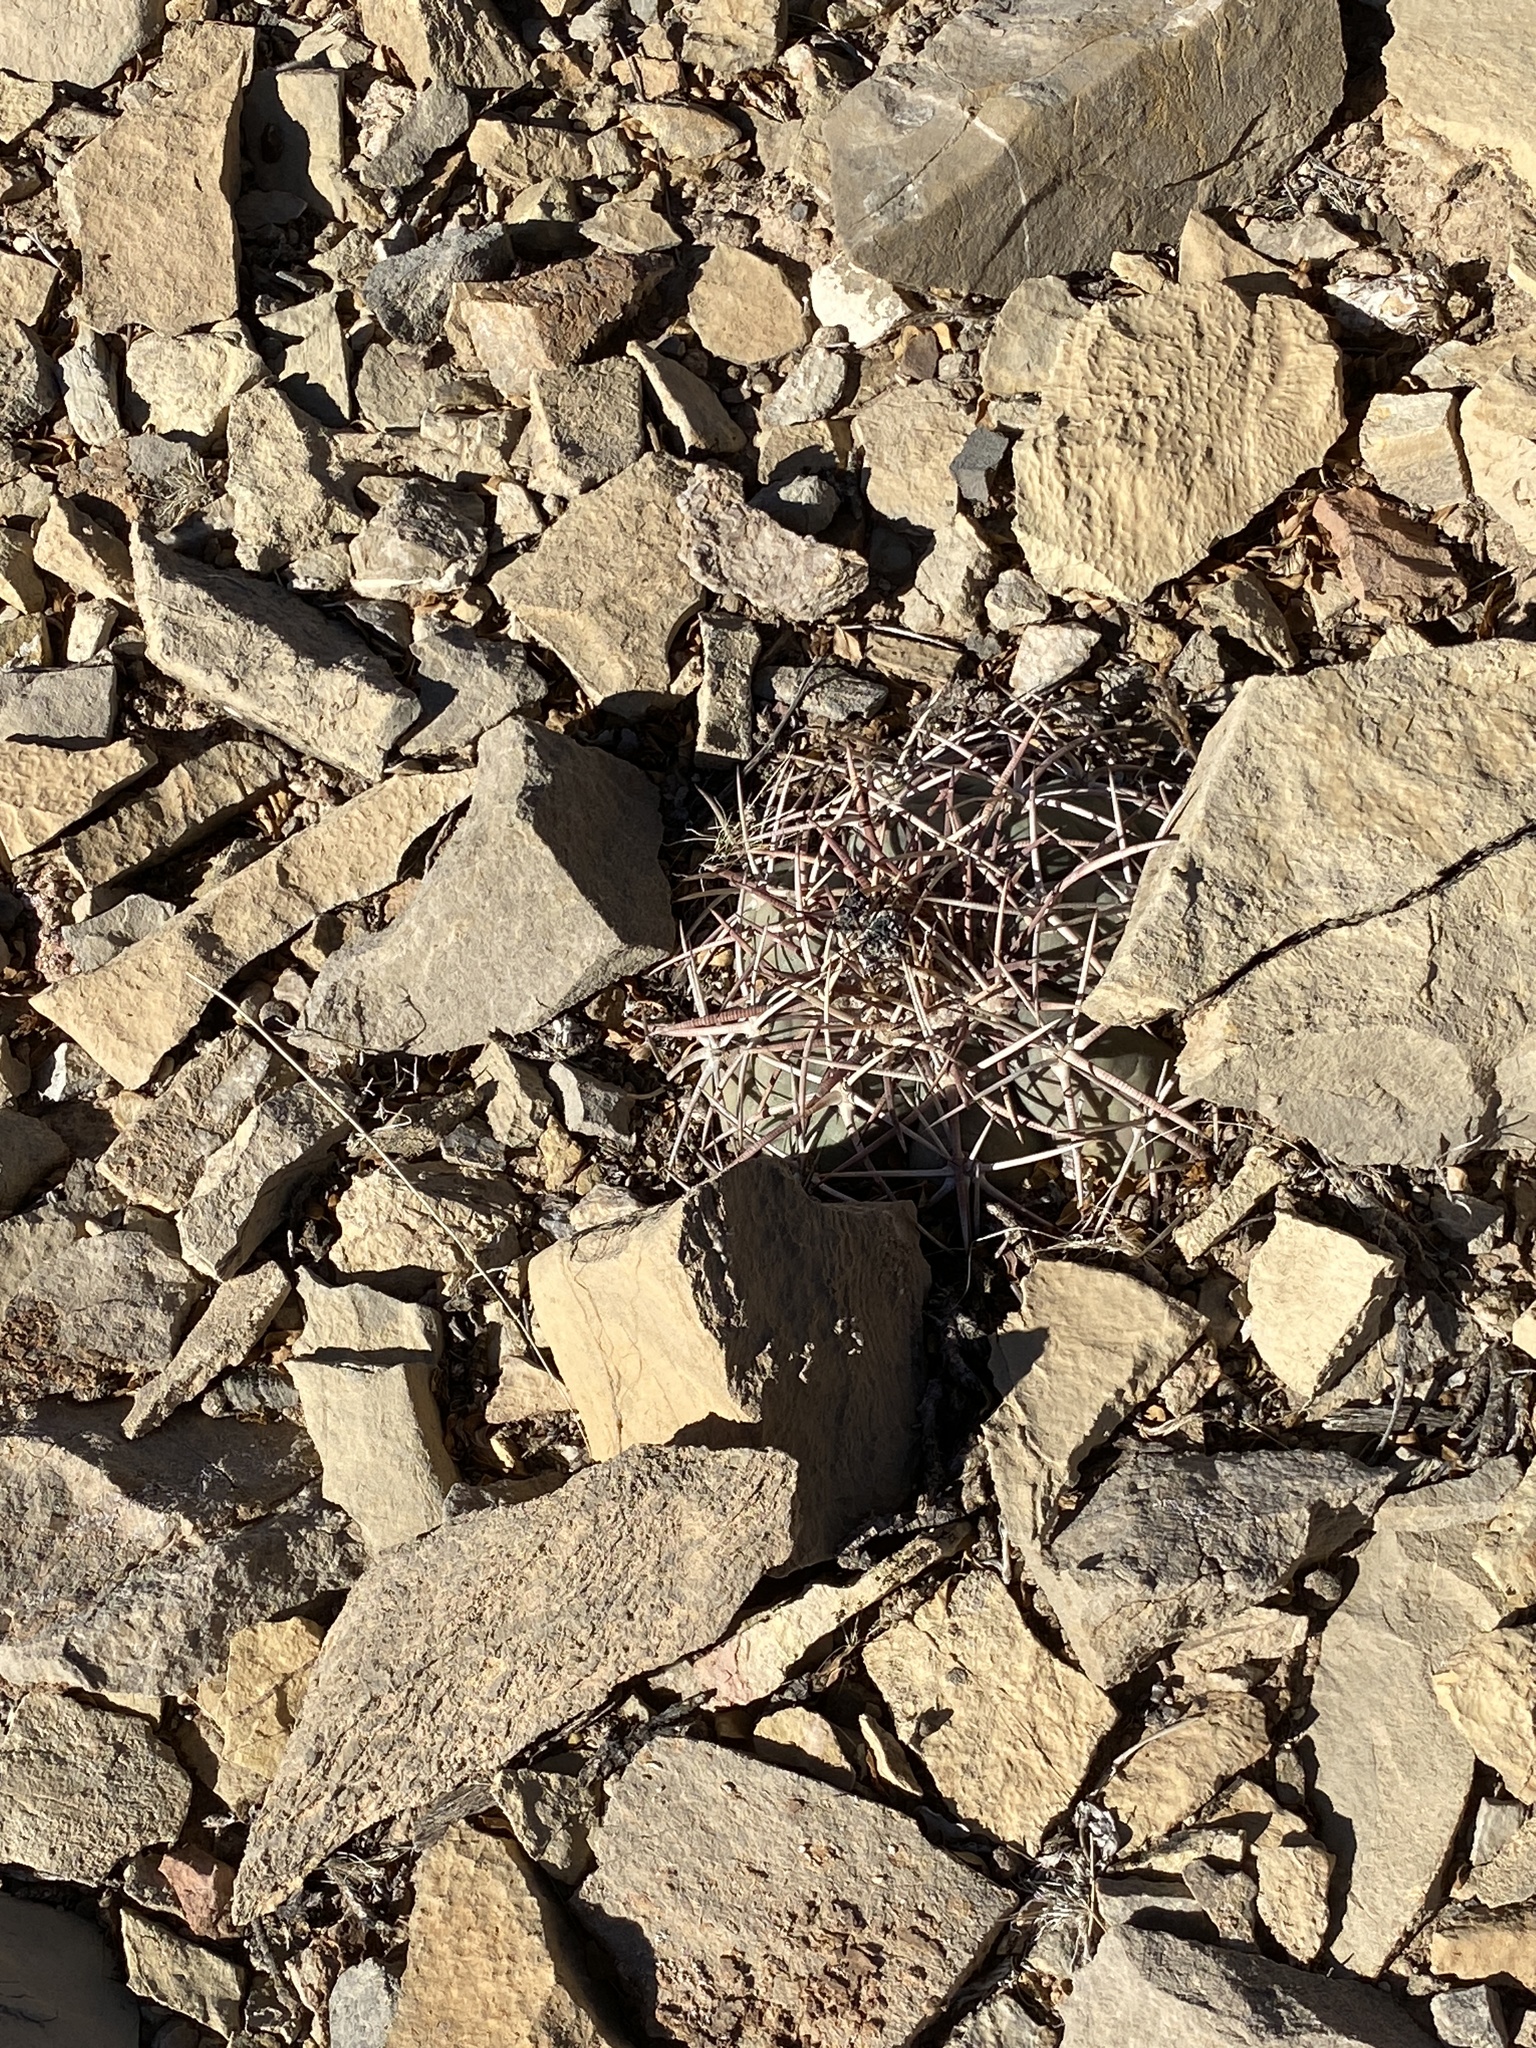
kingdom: Plantae
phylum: Tracheophyta
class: Magnoliopsida
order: Caryophyllales
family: Cactaceae
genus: Echinocactus
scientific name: Echinocactus horizonthalonius
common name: Devilshead
